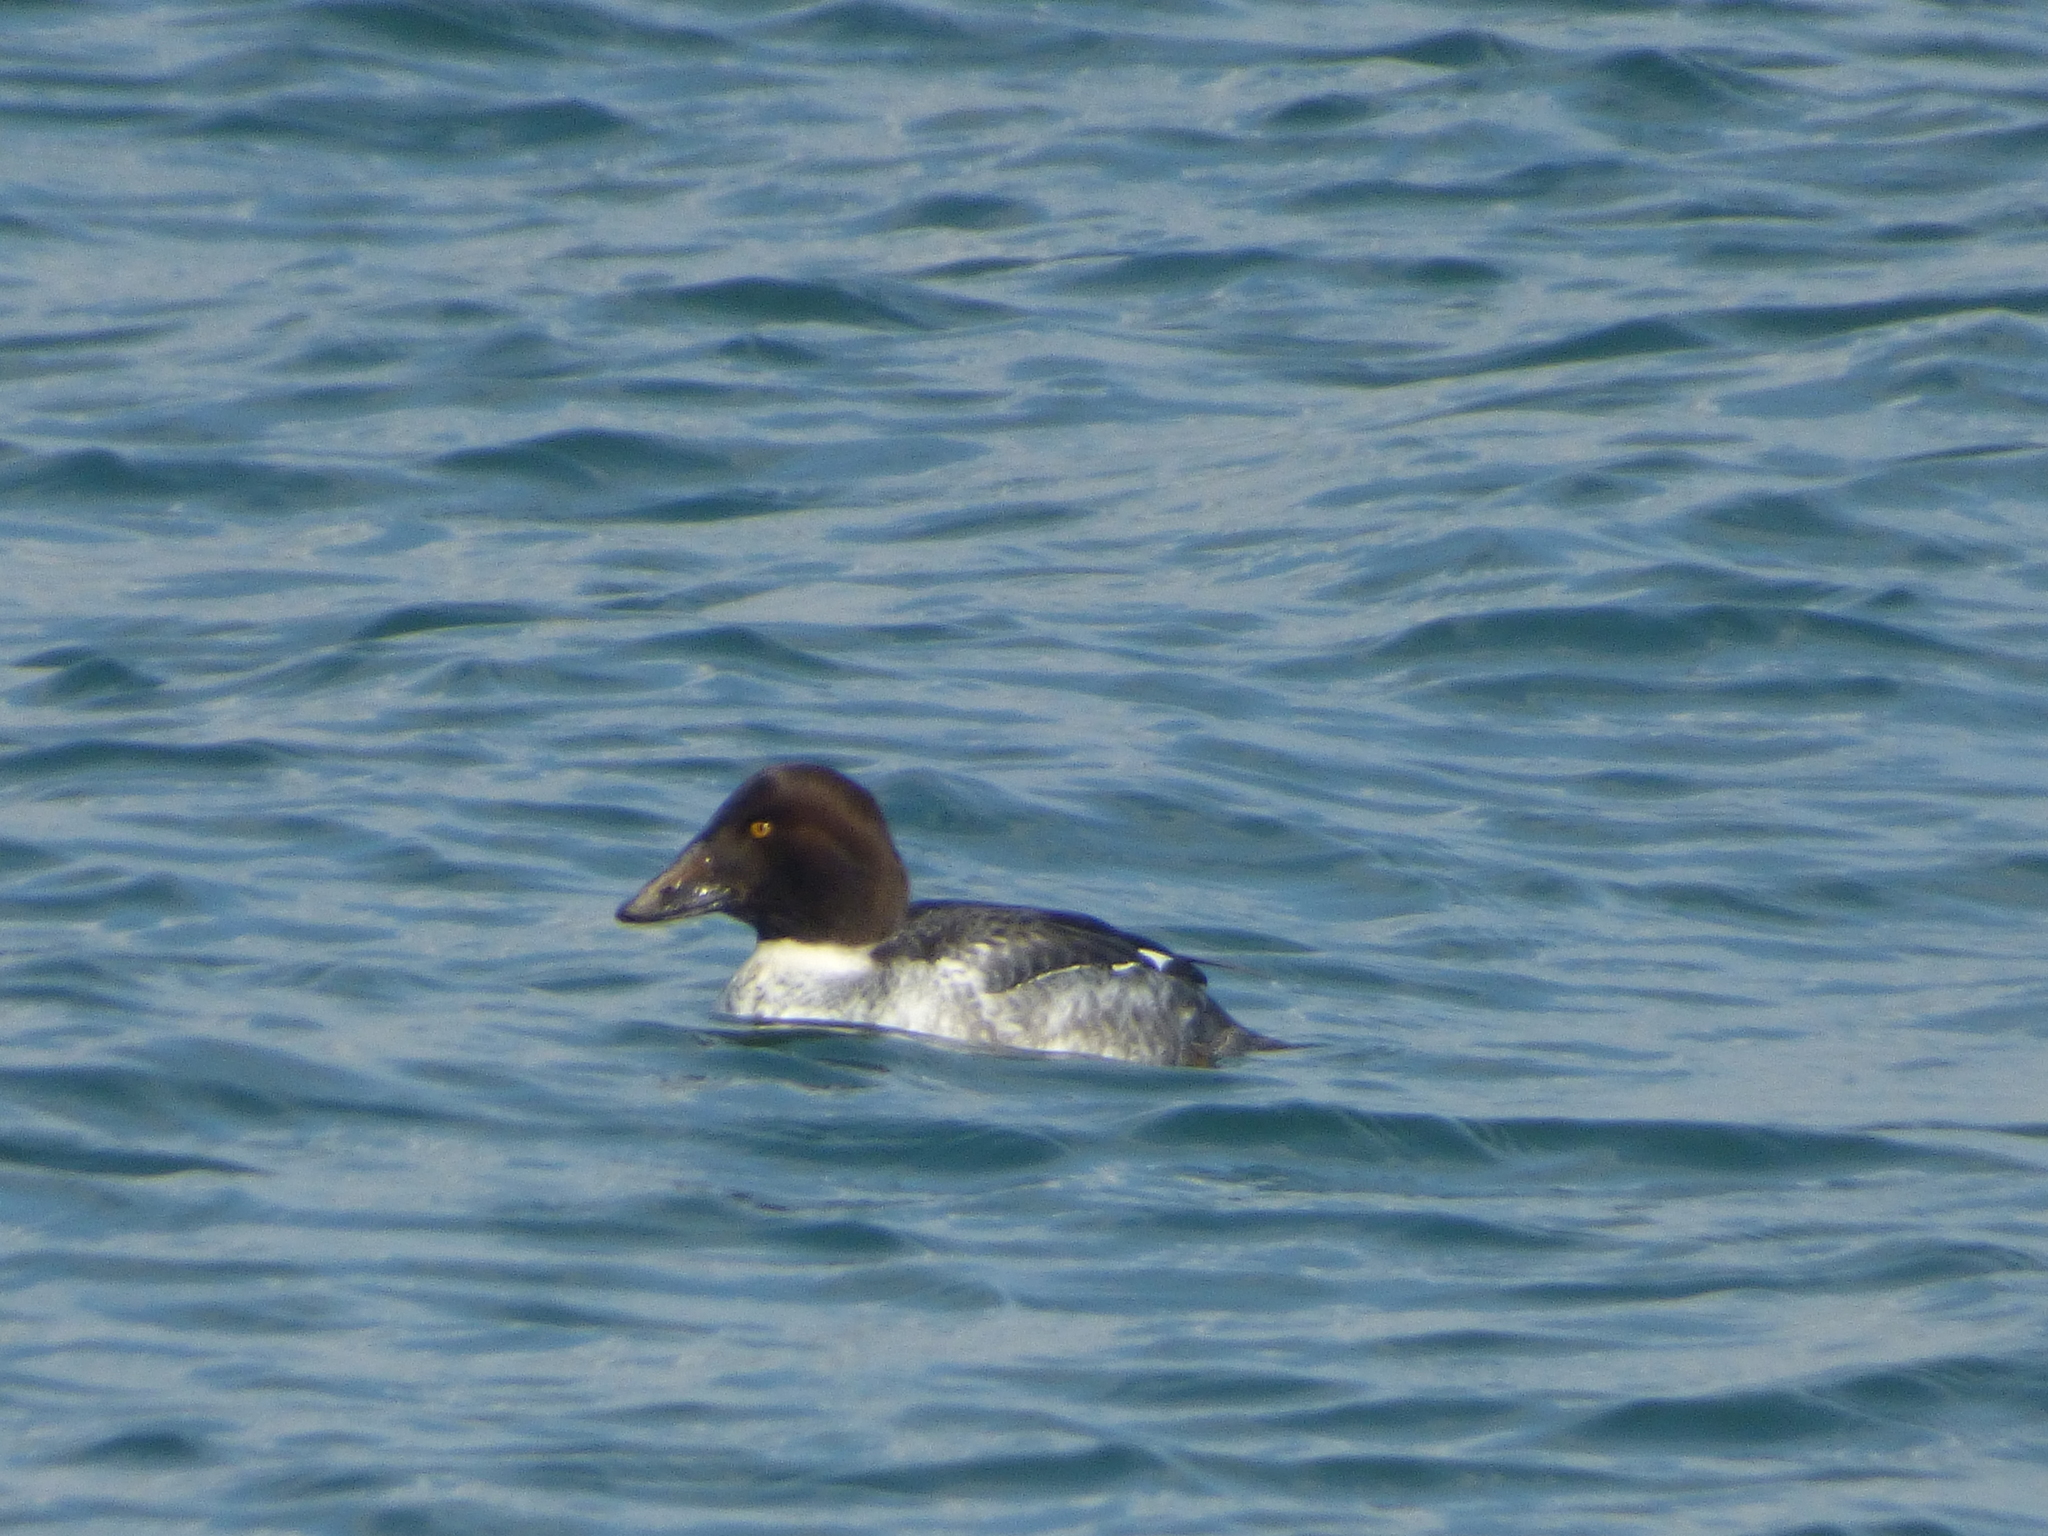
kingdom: Animalia
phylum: Chordata
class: Aves
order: Anseriformes
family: Anatidae
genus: Bucephala
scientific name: Bucephala clangula
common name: Common goldeneye
